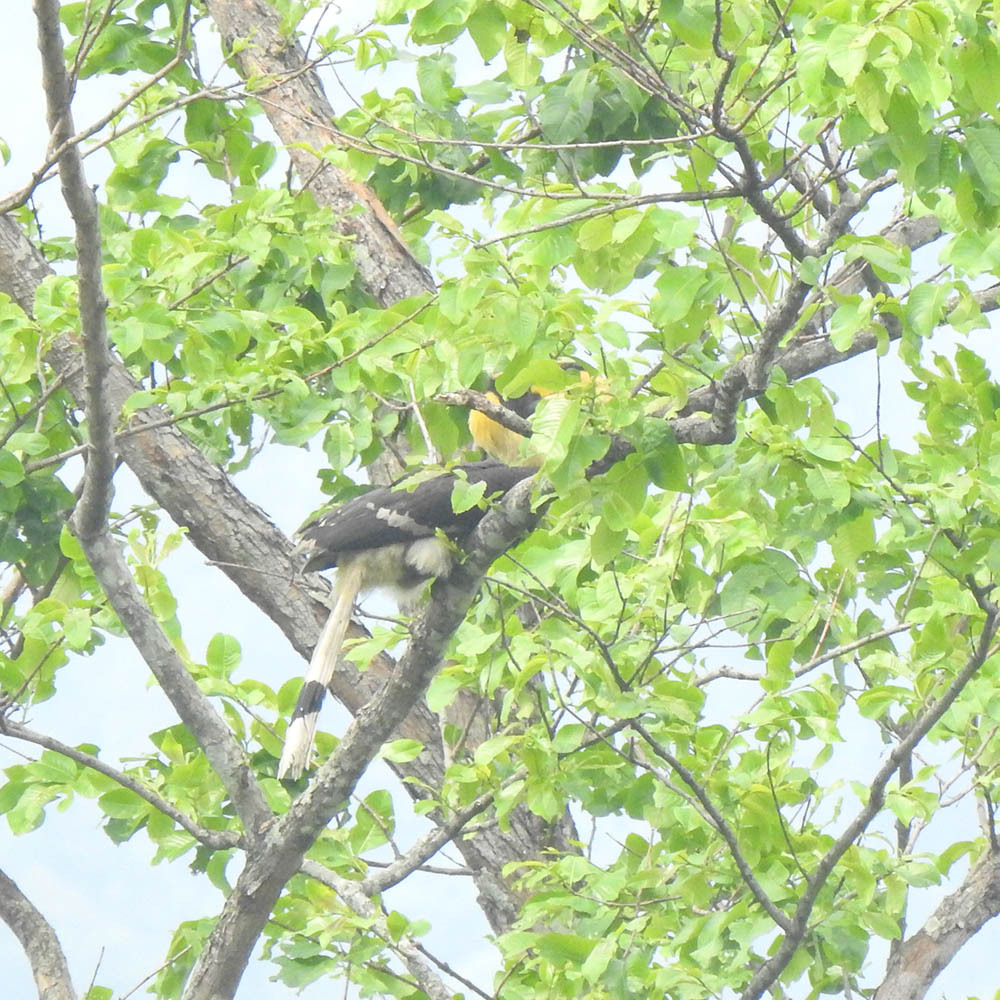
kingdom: Animalia
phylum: Chordata
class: Aves
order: Bucerotiformes
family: Bucerotidae
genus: Buceros
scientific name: Buceros bicornis
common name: Great hornbill
